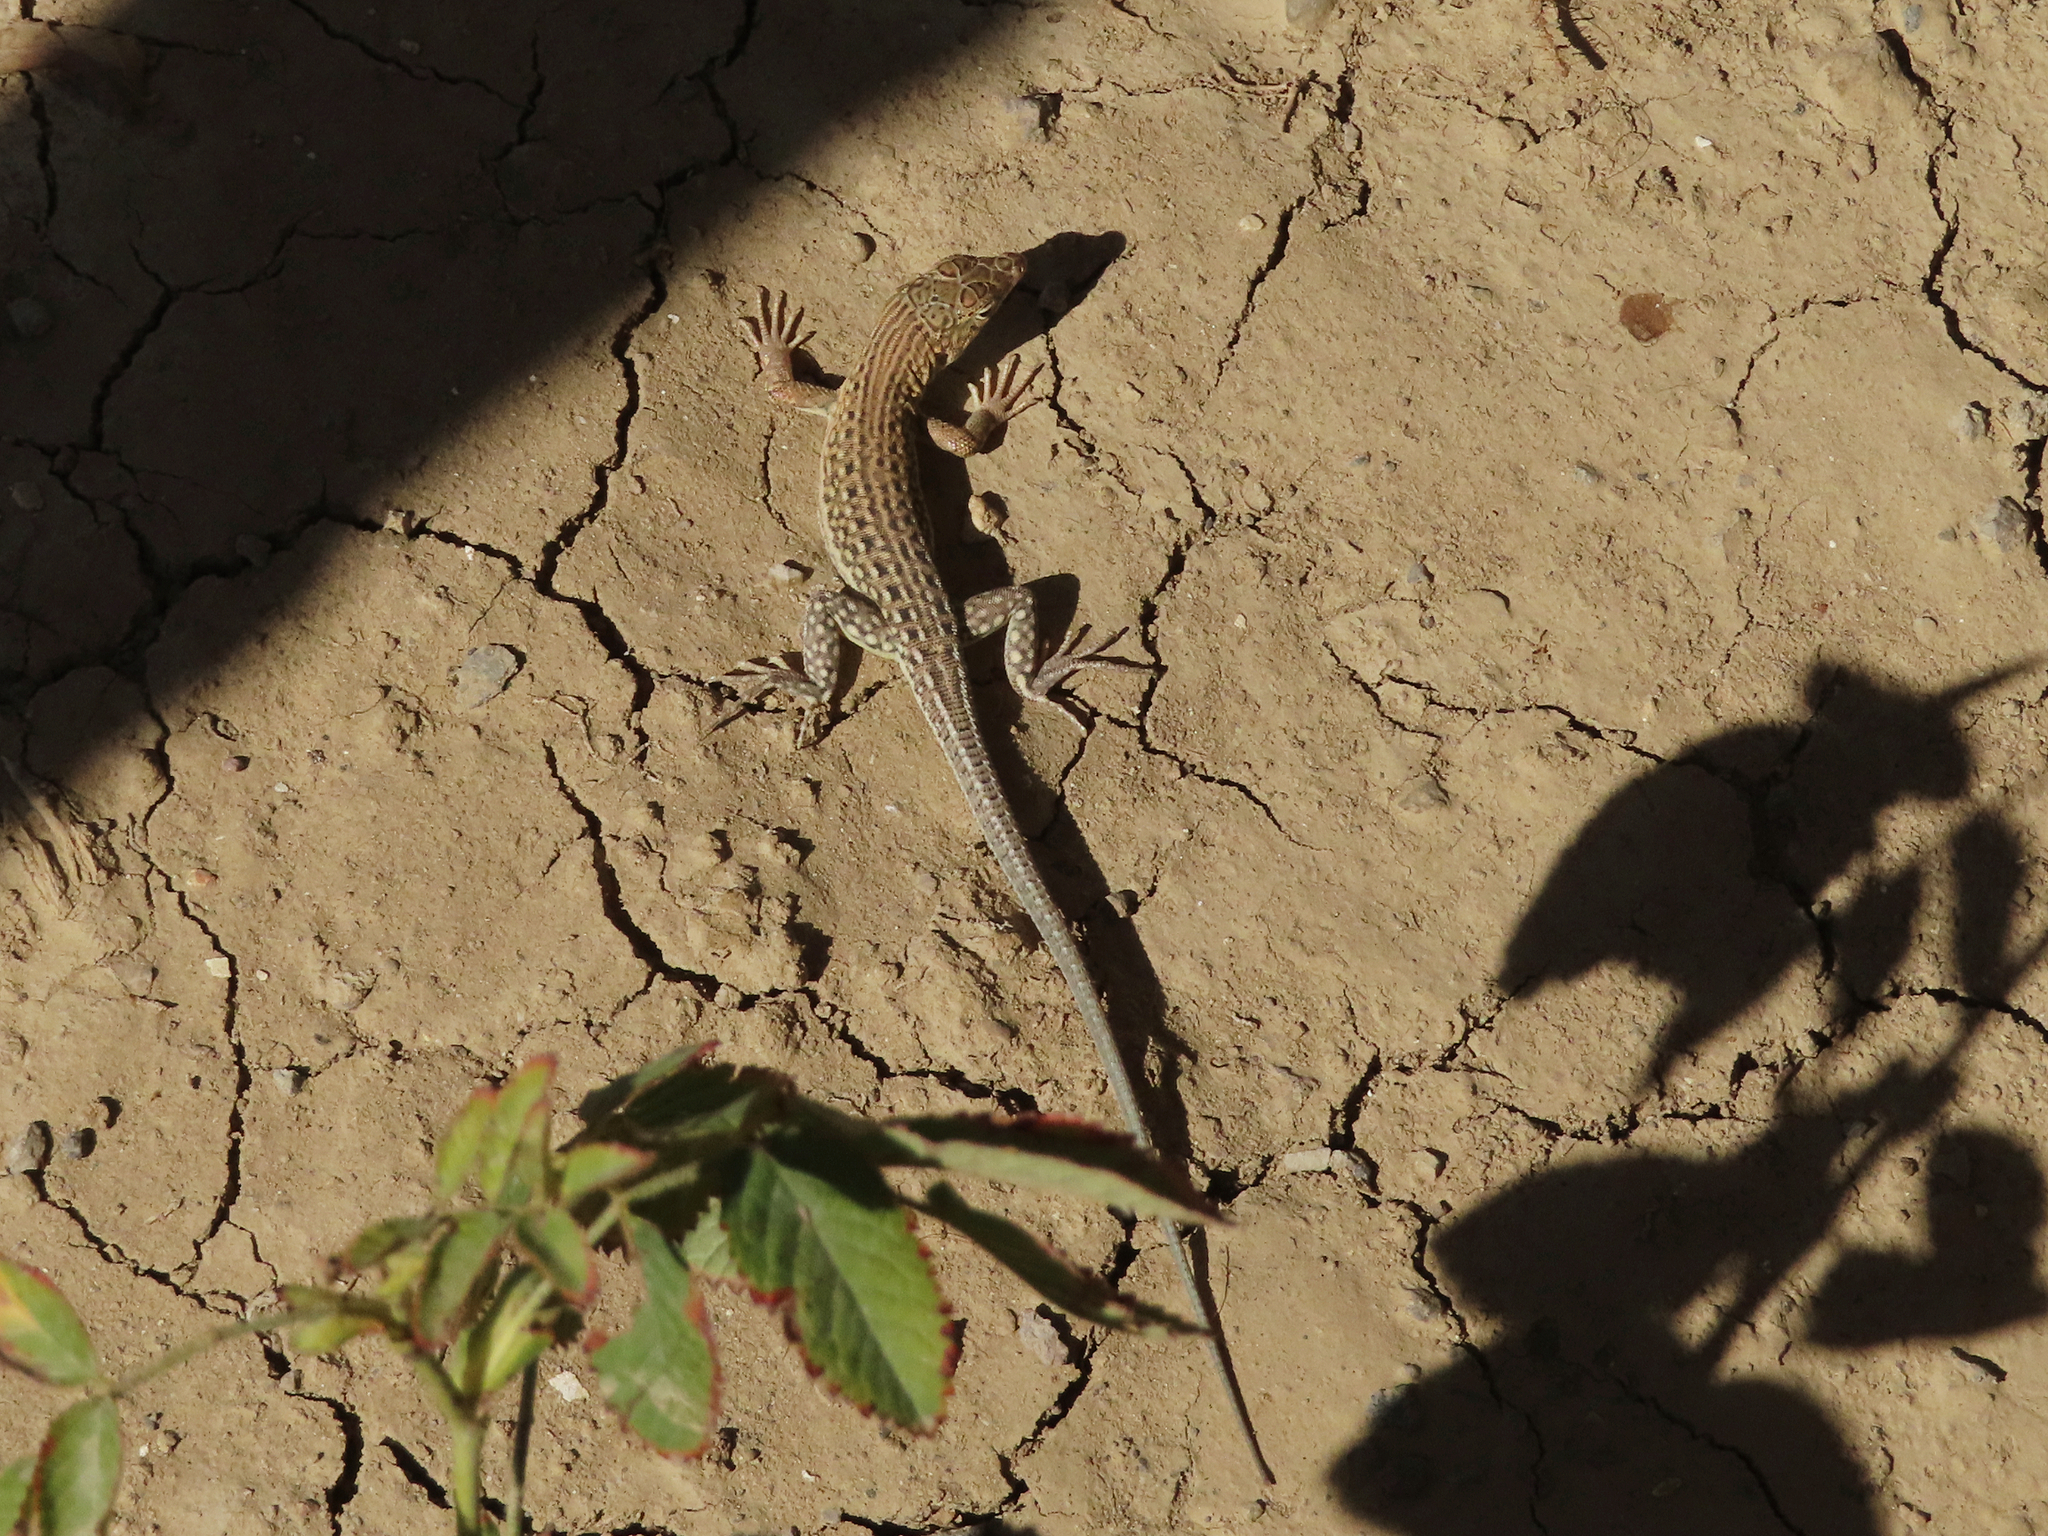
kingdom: Animalia
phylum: Chordata
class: Squamata
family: Lacertidae
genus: Eremias
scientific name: Eremias strauchi
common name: Strauch's racerunner
